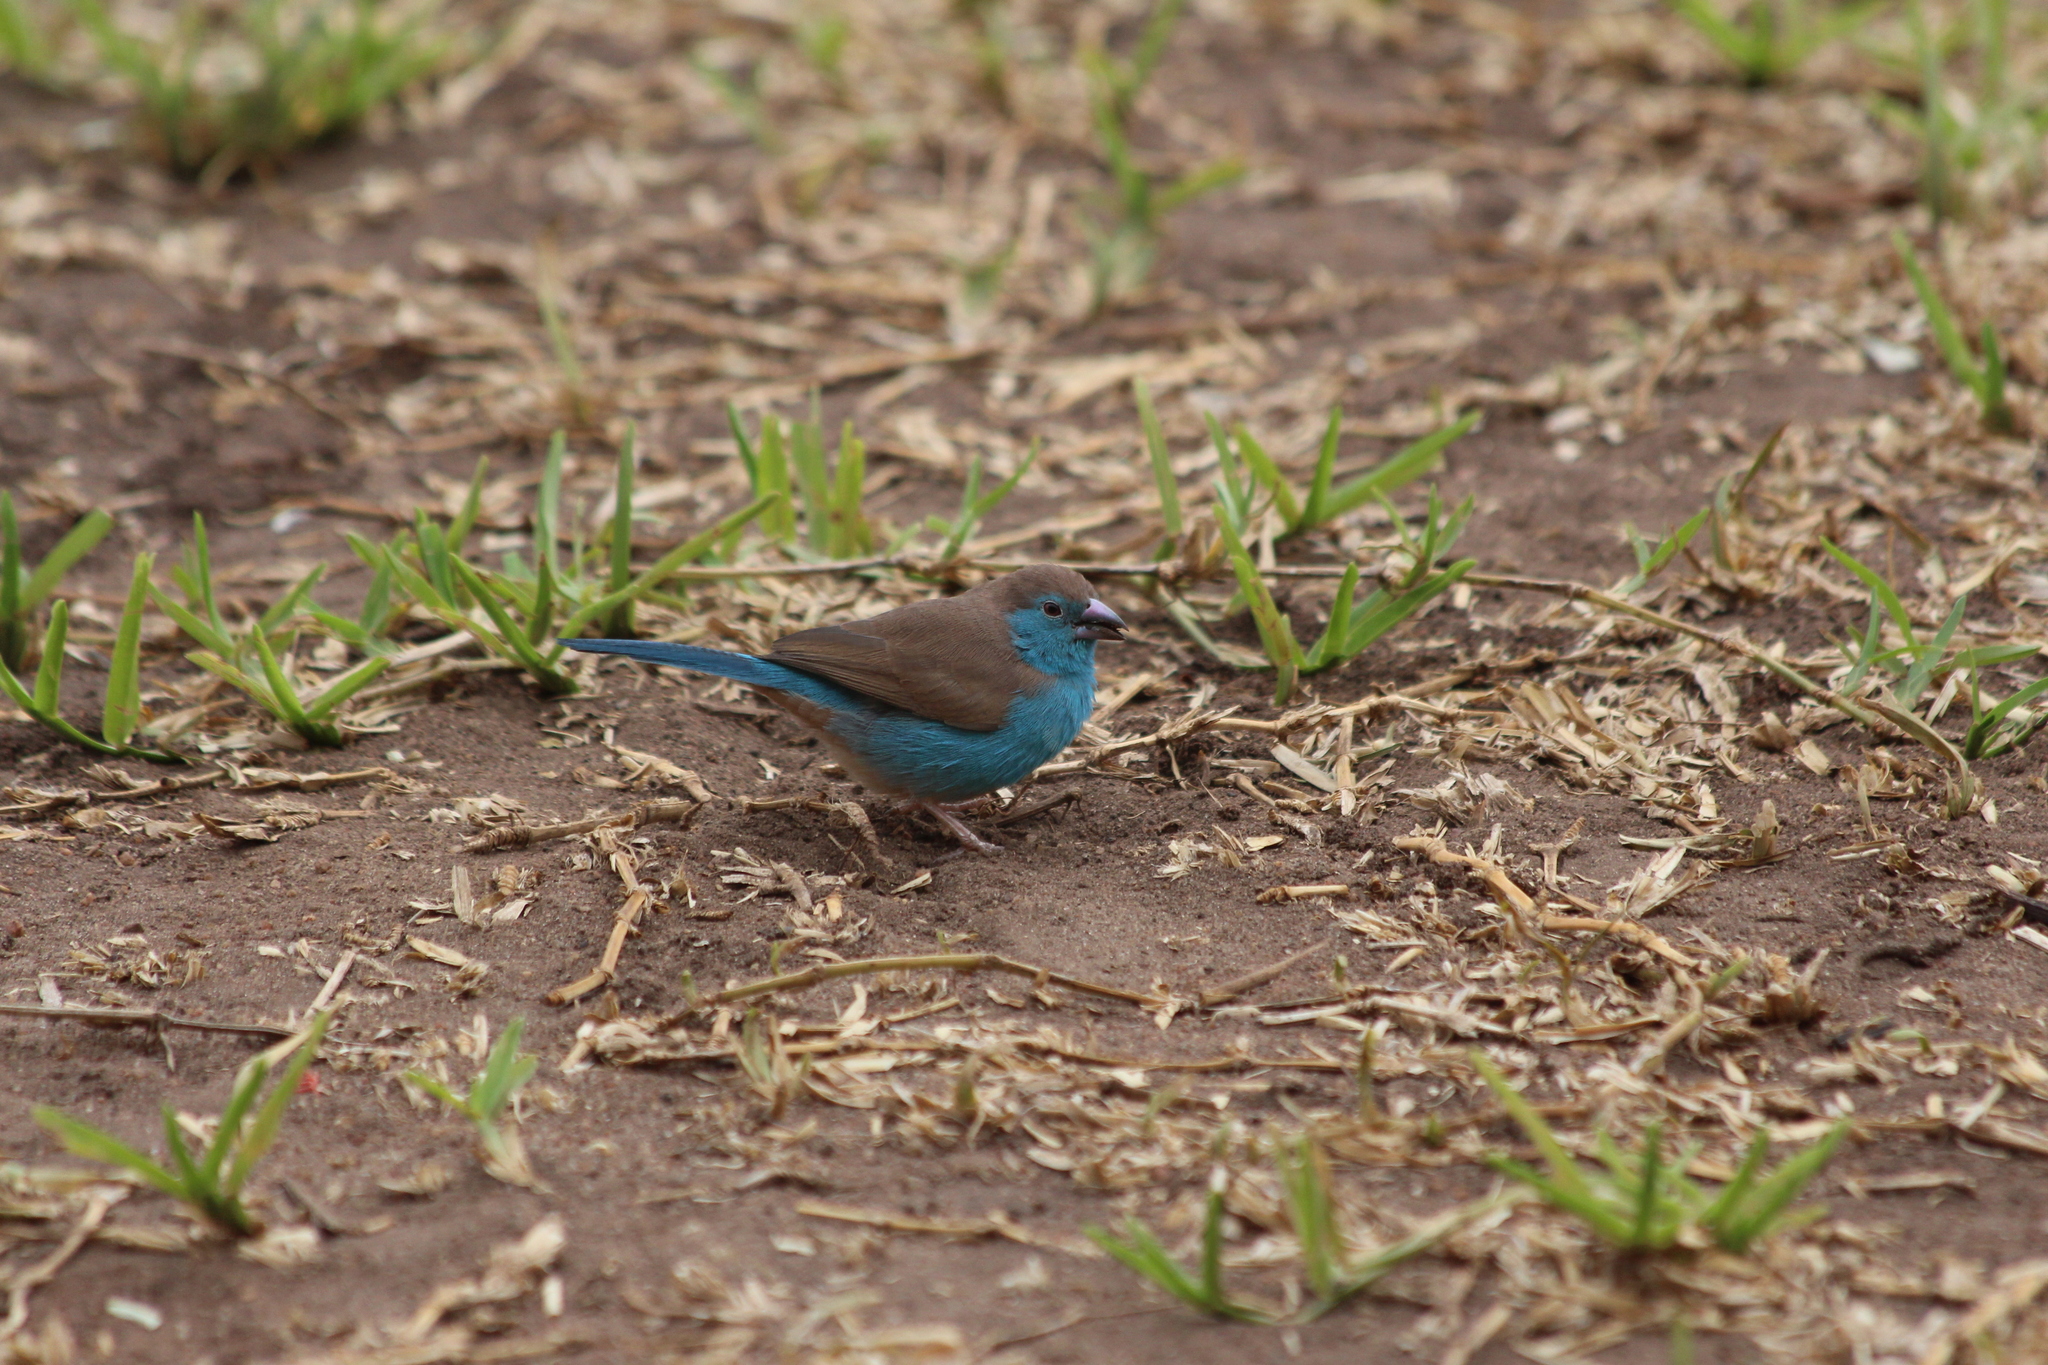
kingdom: Animalia
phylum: Chordata
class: Aves
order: Passeriformes
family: Estrildidae
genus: Uraeginthus
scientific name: Uraeginthus angolensis
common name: Blue waxbill
